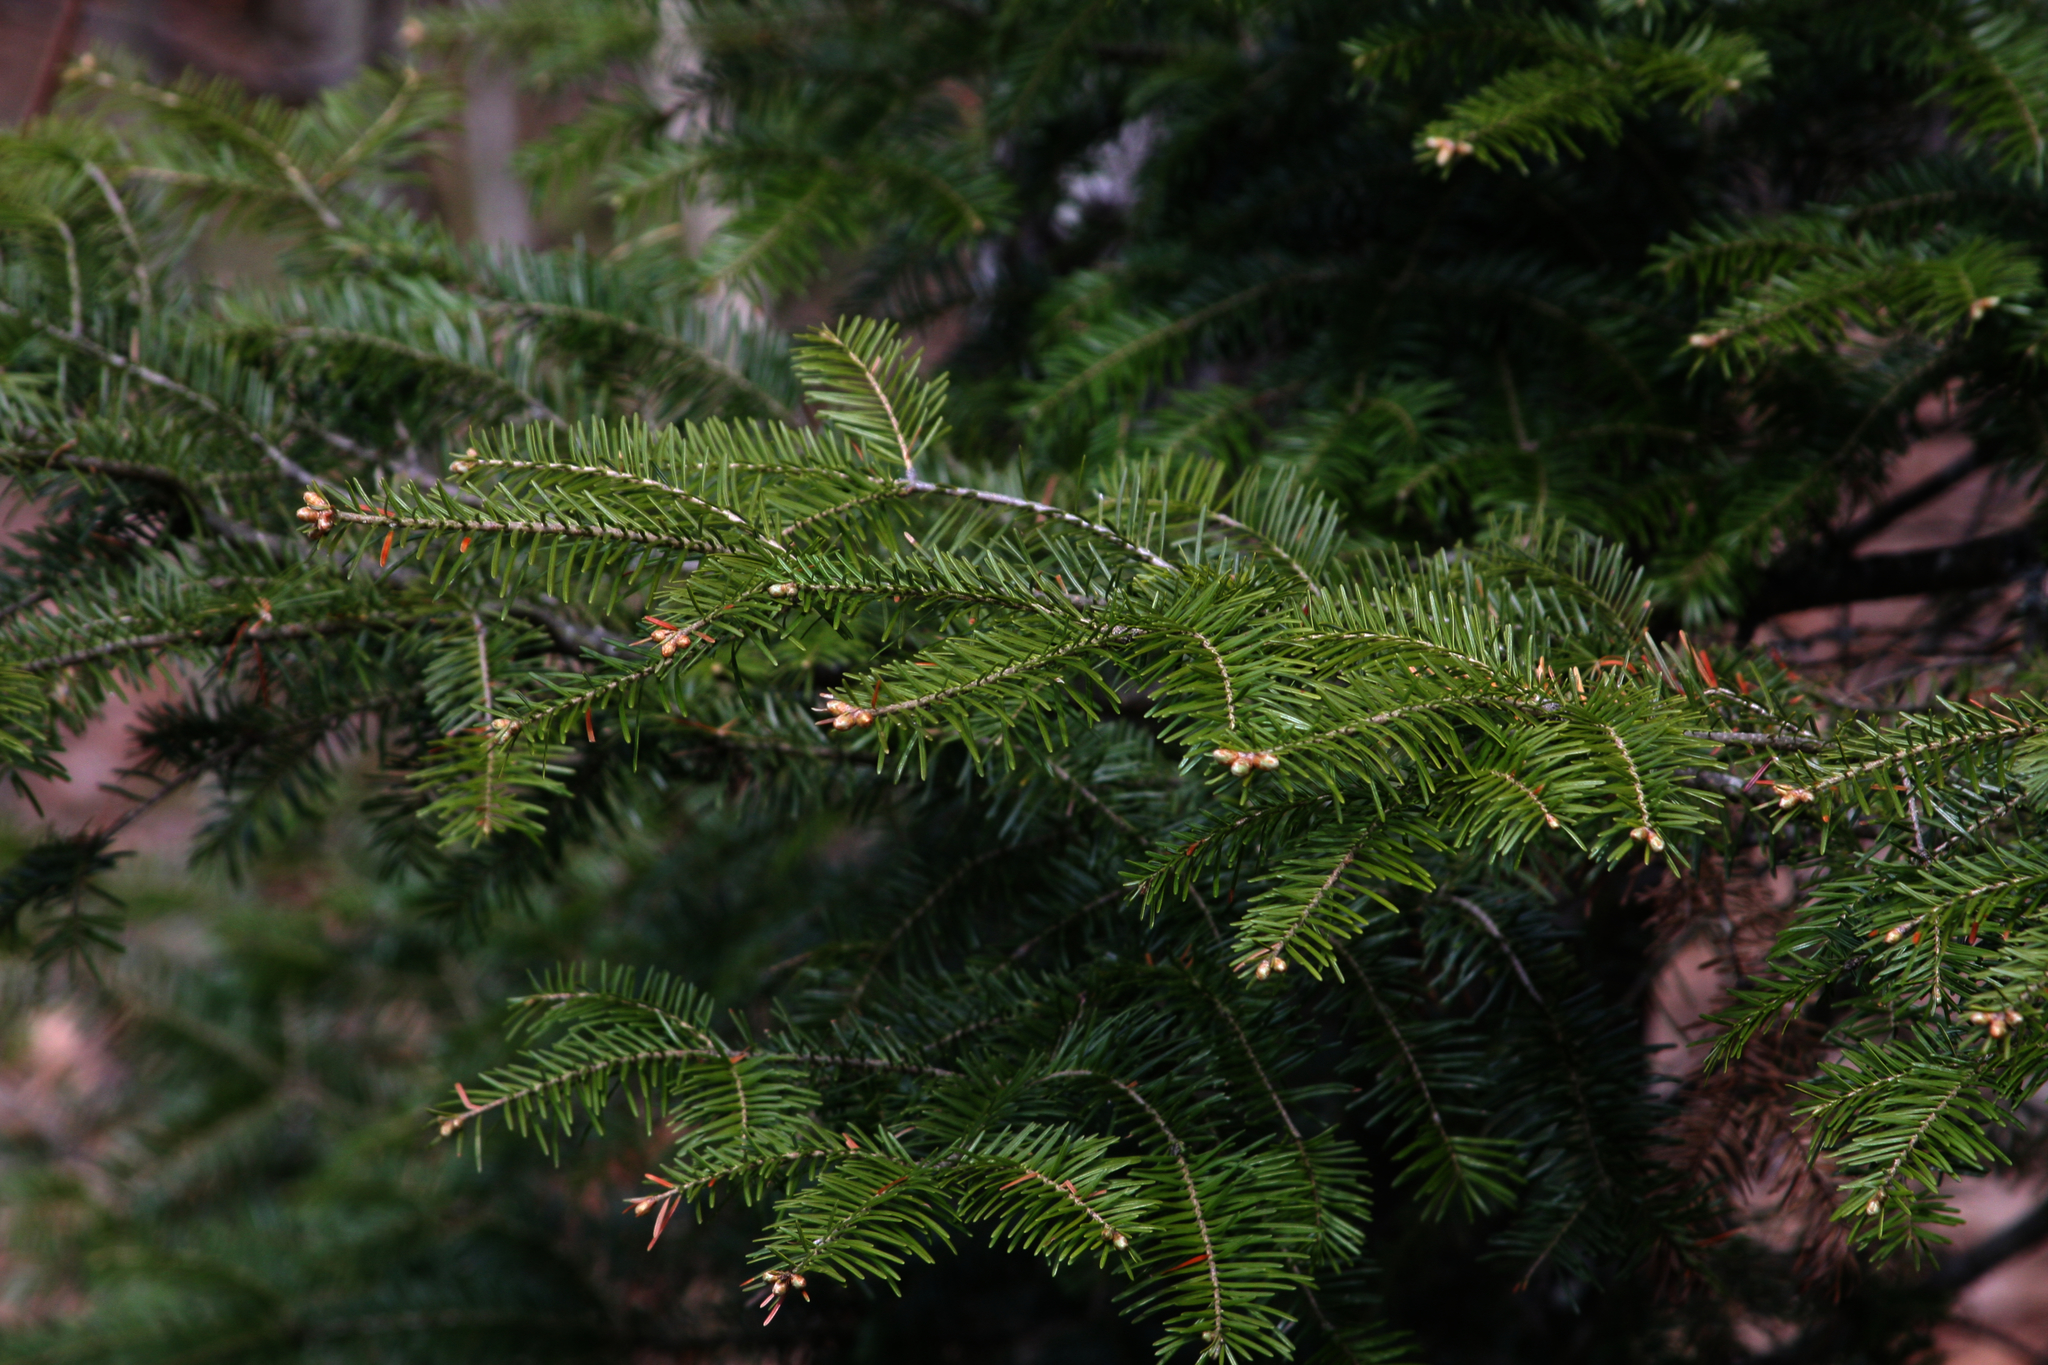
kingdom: Plantae
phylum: Tracheophyta
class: Pinopsida
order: Pinales
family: Pinaceae
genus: Abies
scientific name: Abies balsamea
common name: Balsam fir
